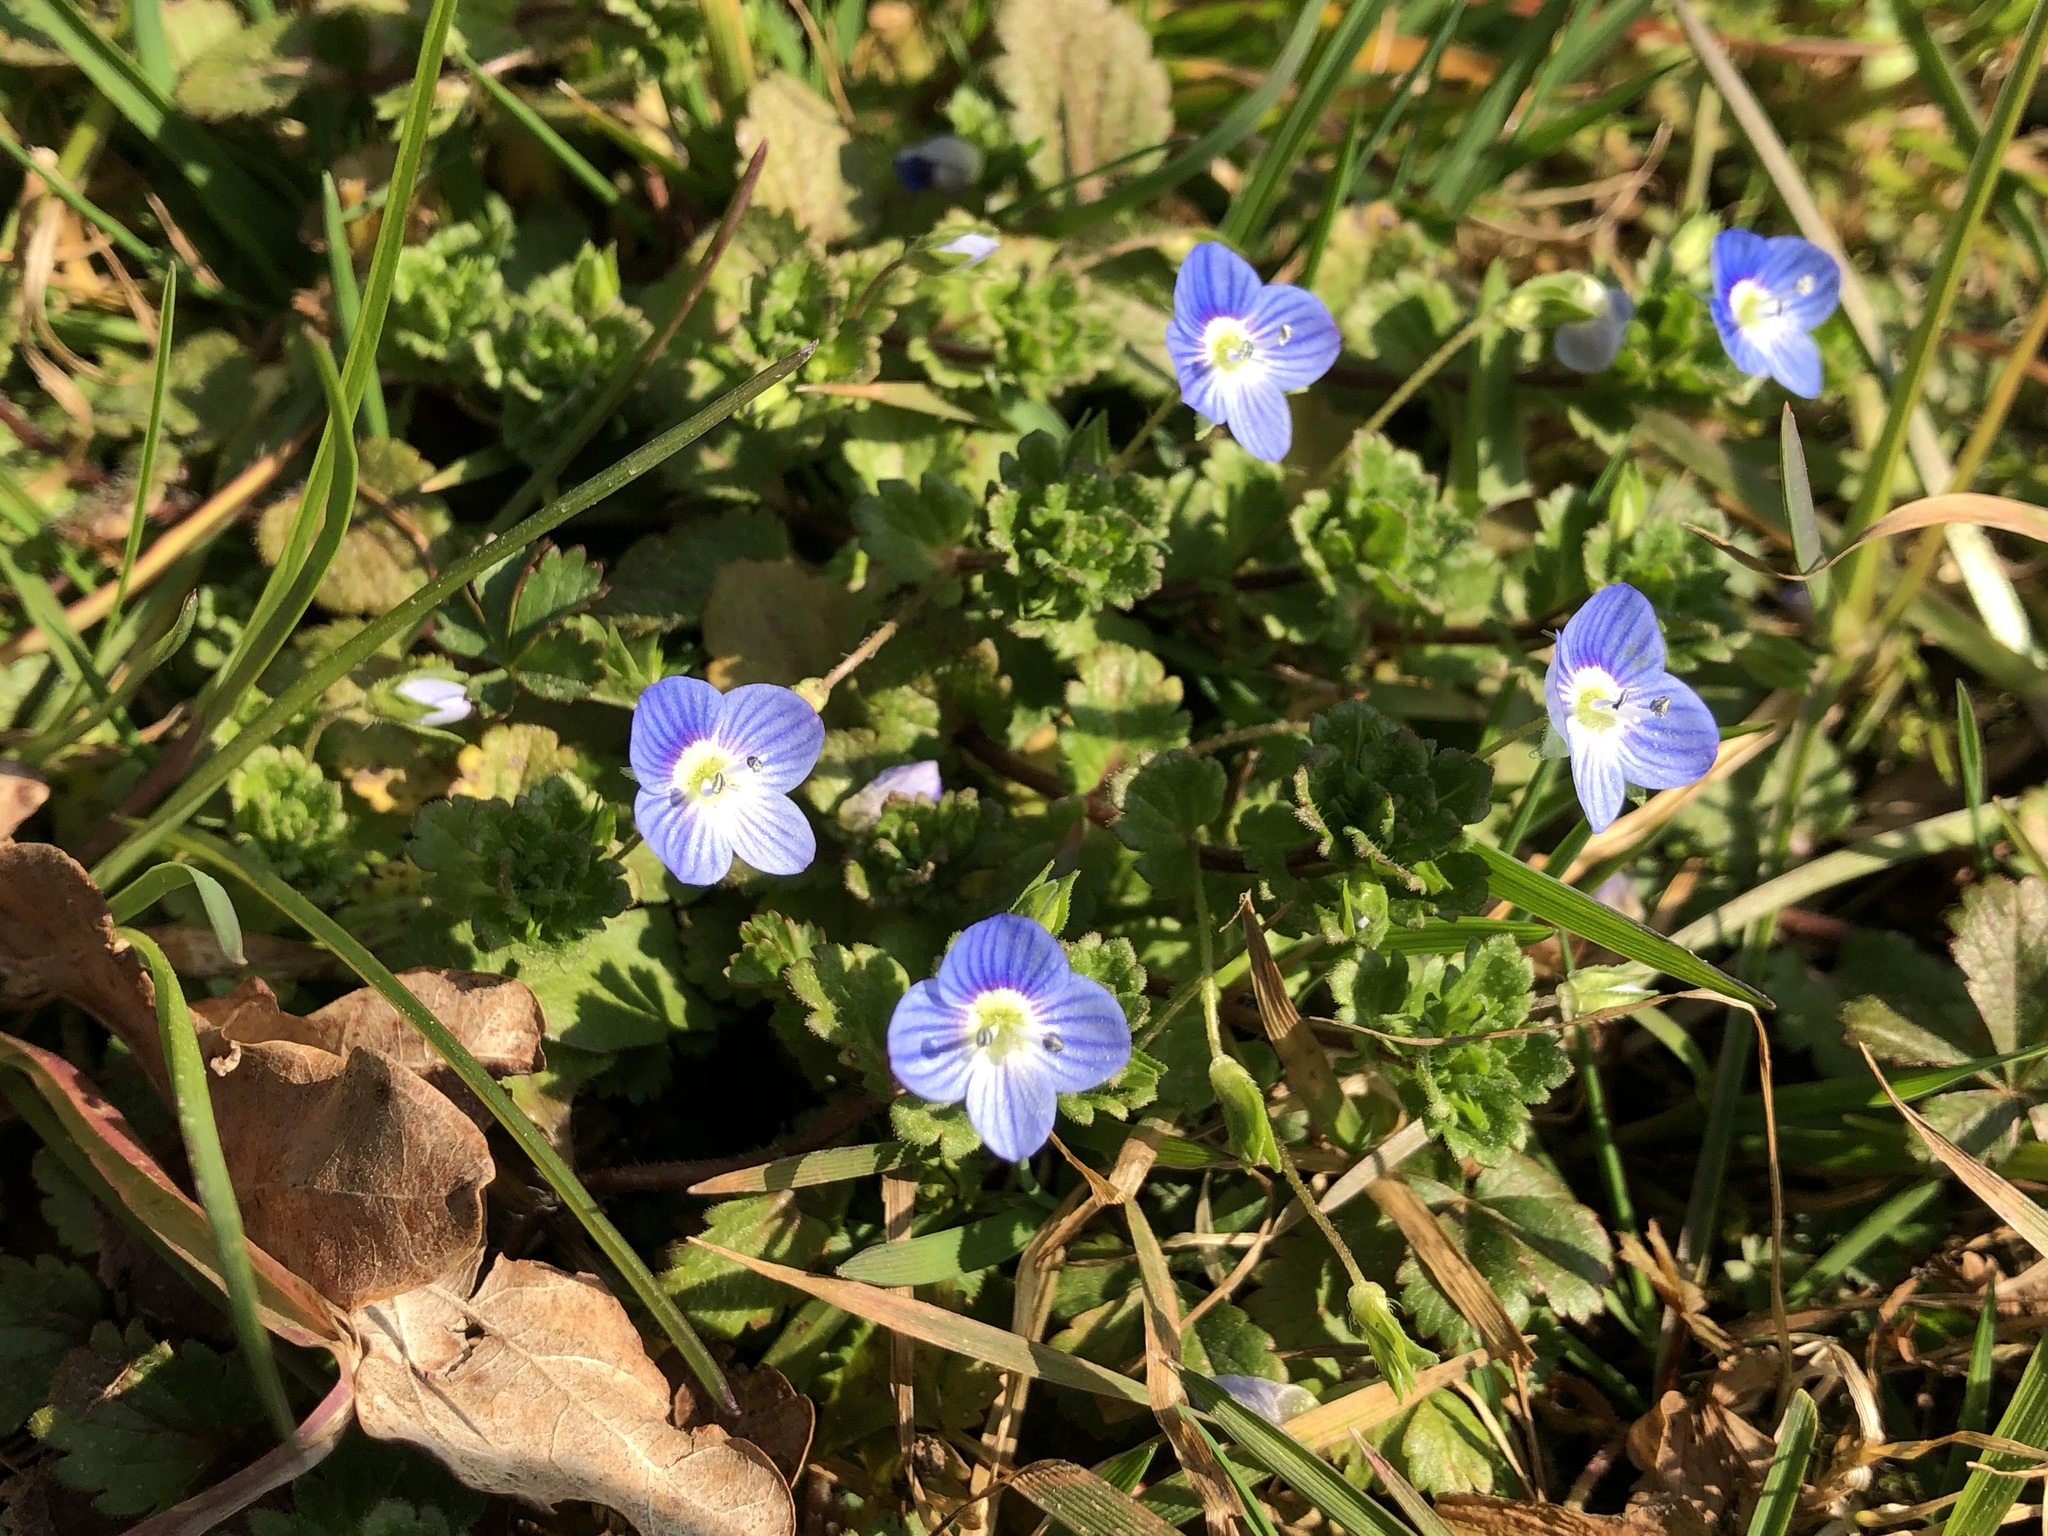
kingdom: Plantae
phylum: Tracheophyta
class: Magnoliopsida
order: Lamiales
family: Plantaginaceae
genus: Veronica
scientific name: Veronica persica
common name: Common field-speedwell
